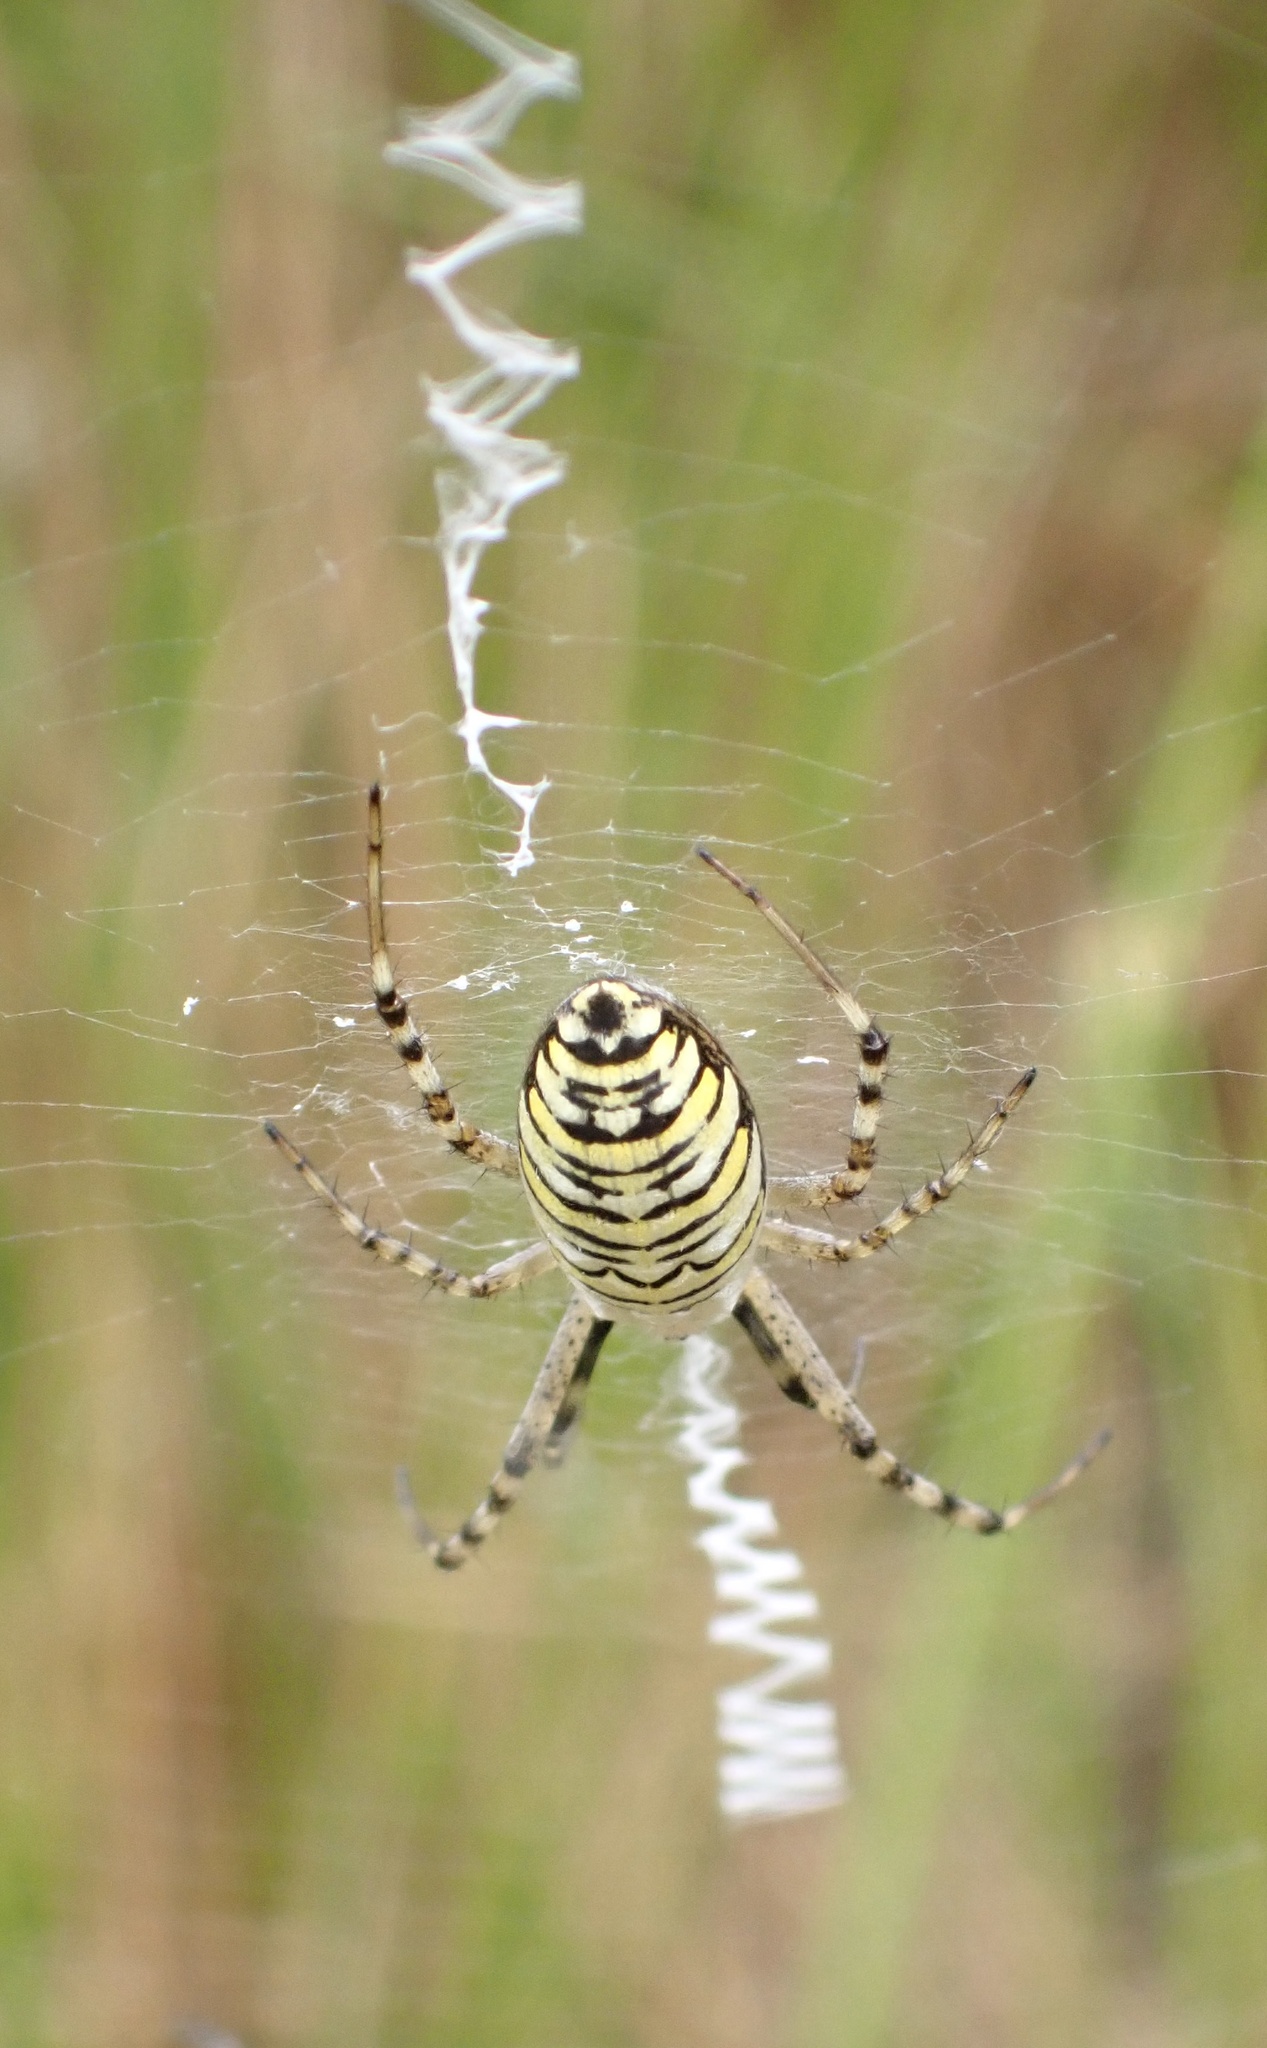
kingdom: Animalia
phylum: Arthropoda
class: Arachnida
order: Araneae
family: Araneidae
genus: Argiope
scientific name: Argiope bruennichi
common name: Wasp spider
